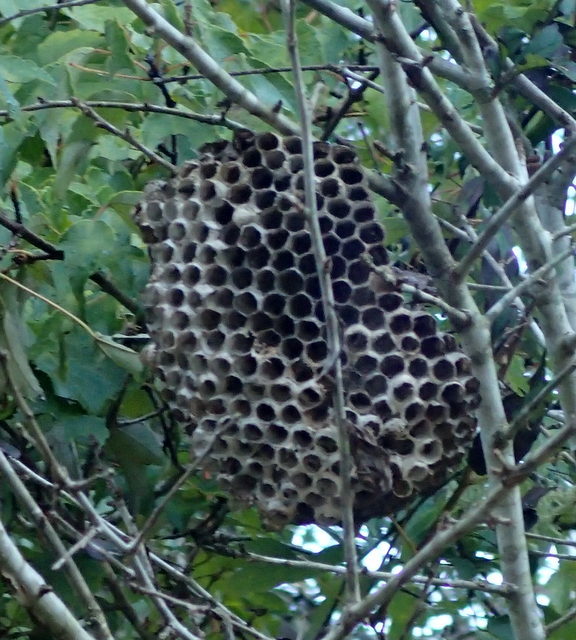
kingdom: Animalia
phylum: Arthropoda
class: Insecta
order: Hymenoptera
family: Vespidae
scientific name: Vespidae
